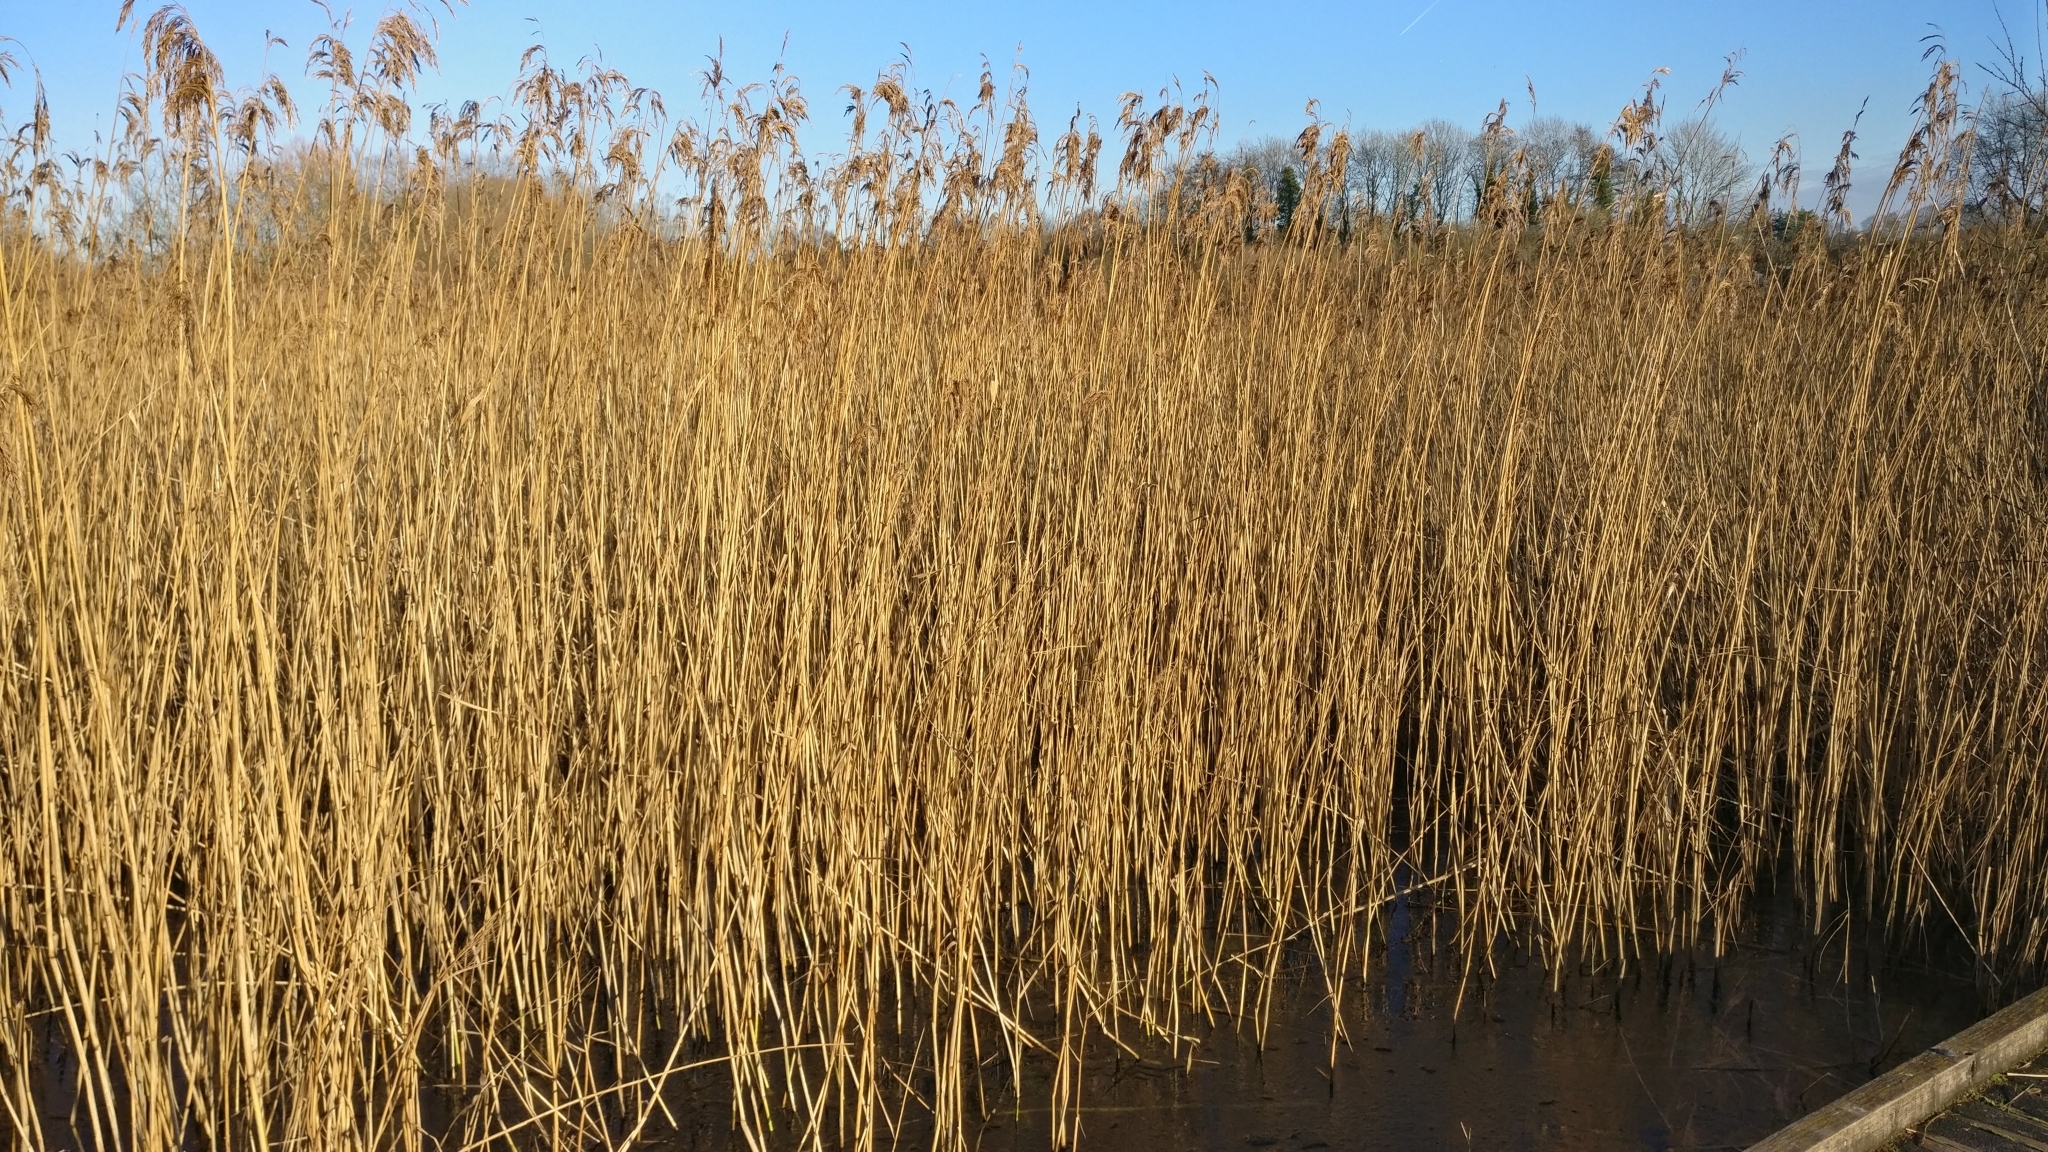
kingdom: Plantae
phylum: Tracheophyta
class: Liliopsida
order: Poales
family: Poaceae
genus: Phragmites
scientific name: Phragmites australis
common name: Common reed
